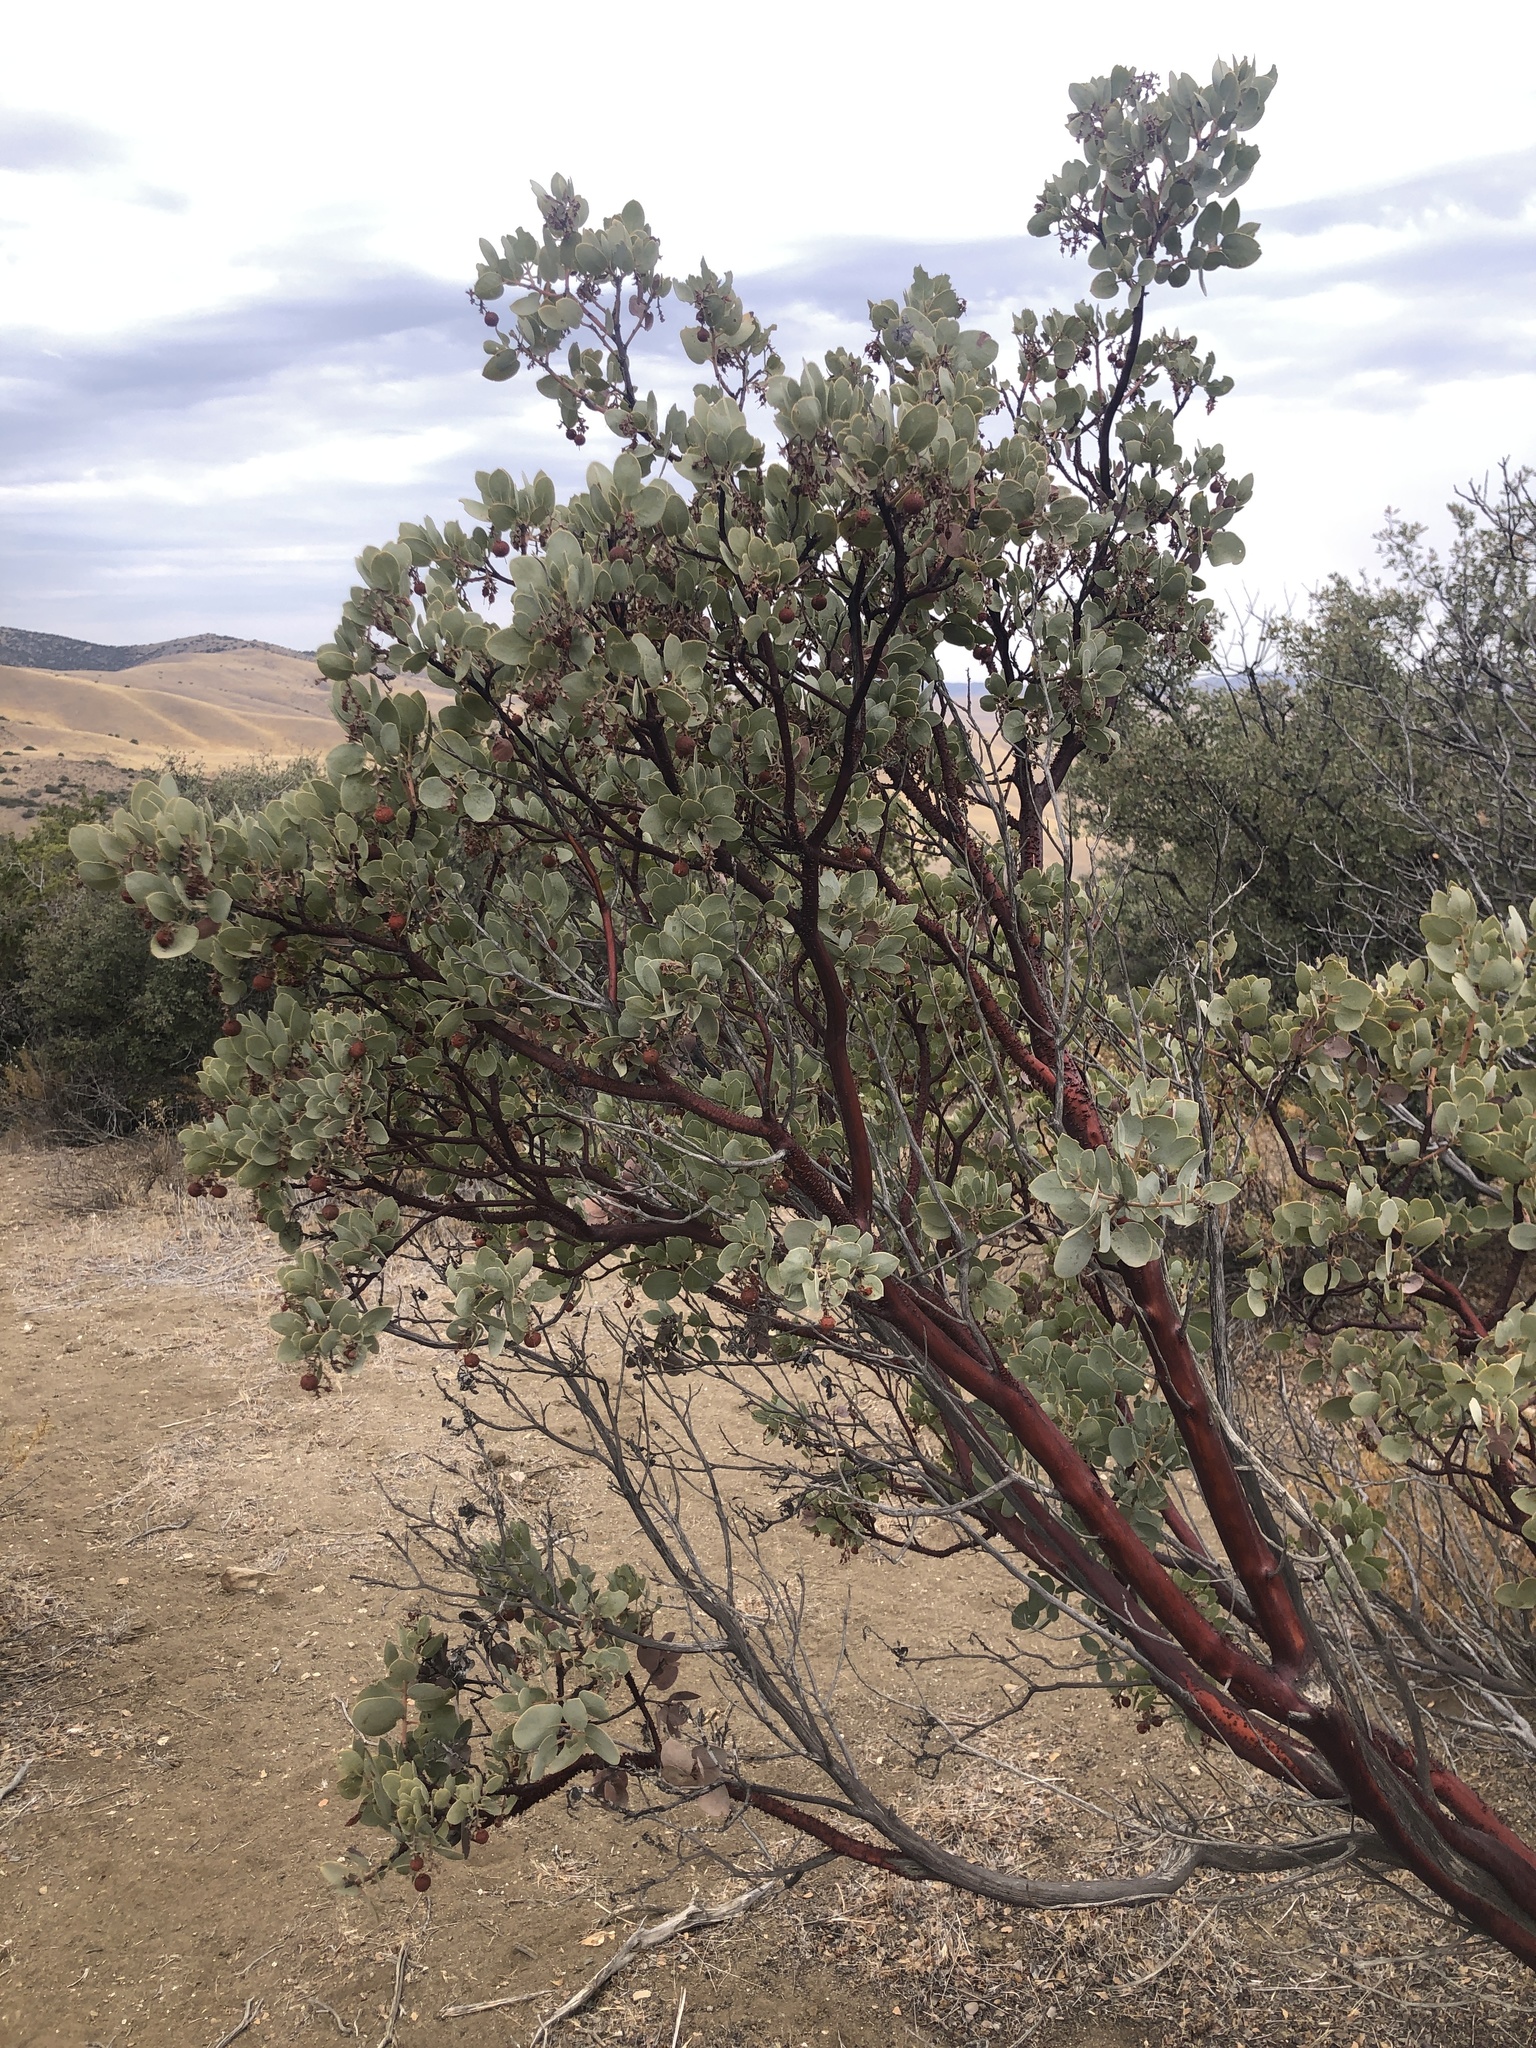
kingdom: Plantae
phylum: Tracheophyta
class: Magnoliopsida
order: Ericales
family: Ericaceae
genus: Arctostaphylos
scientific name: Arctostaphylos glauca
